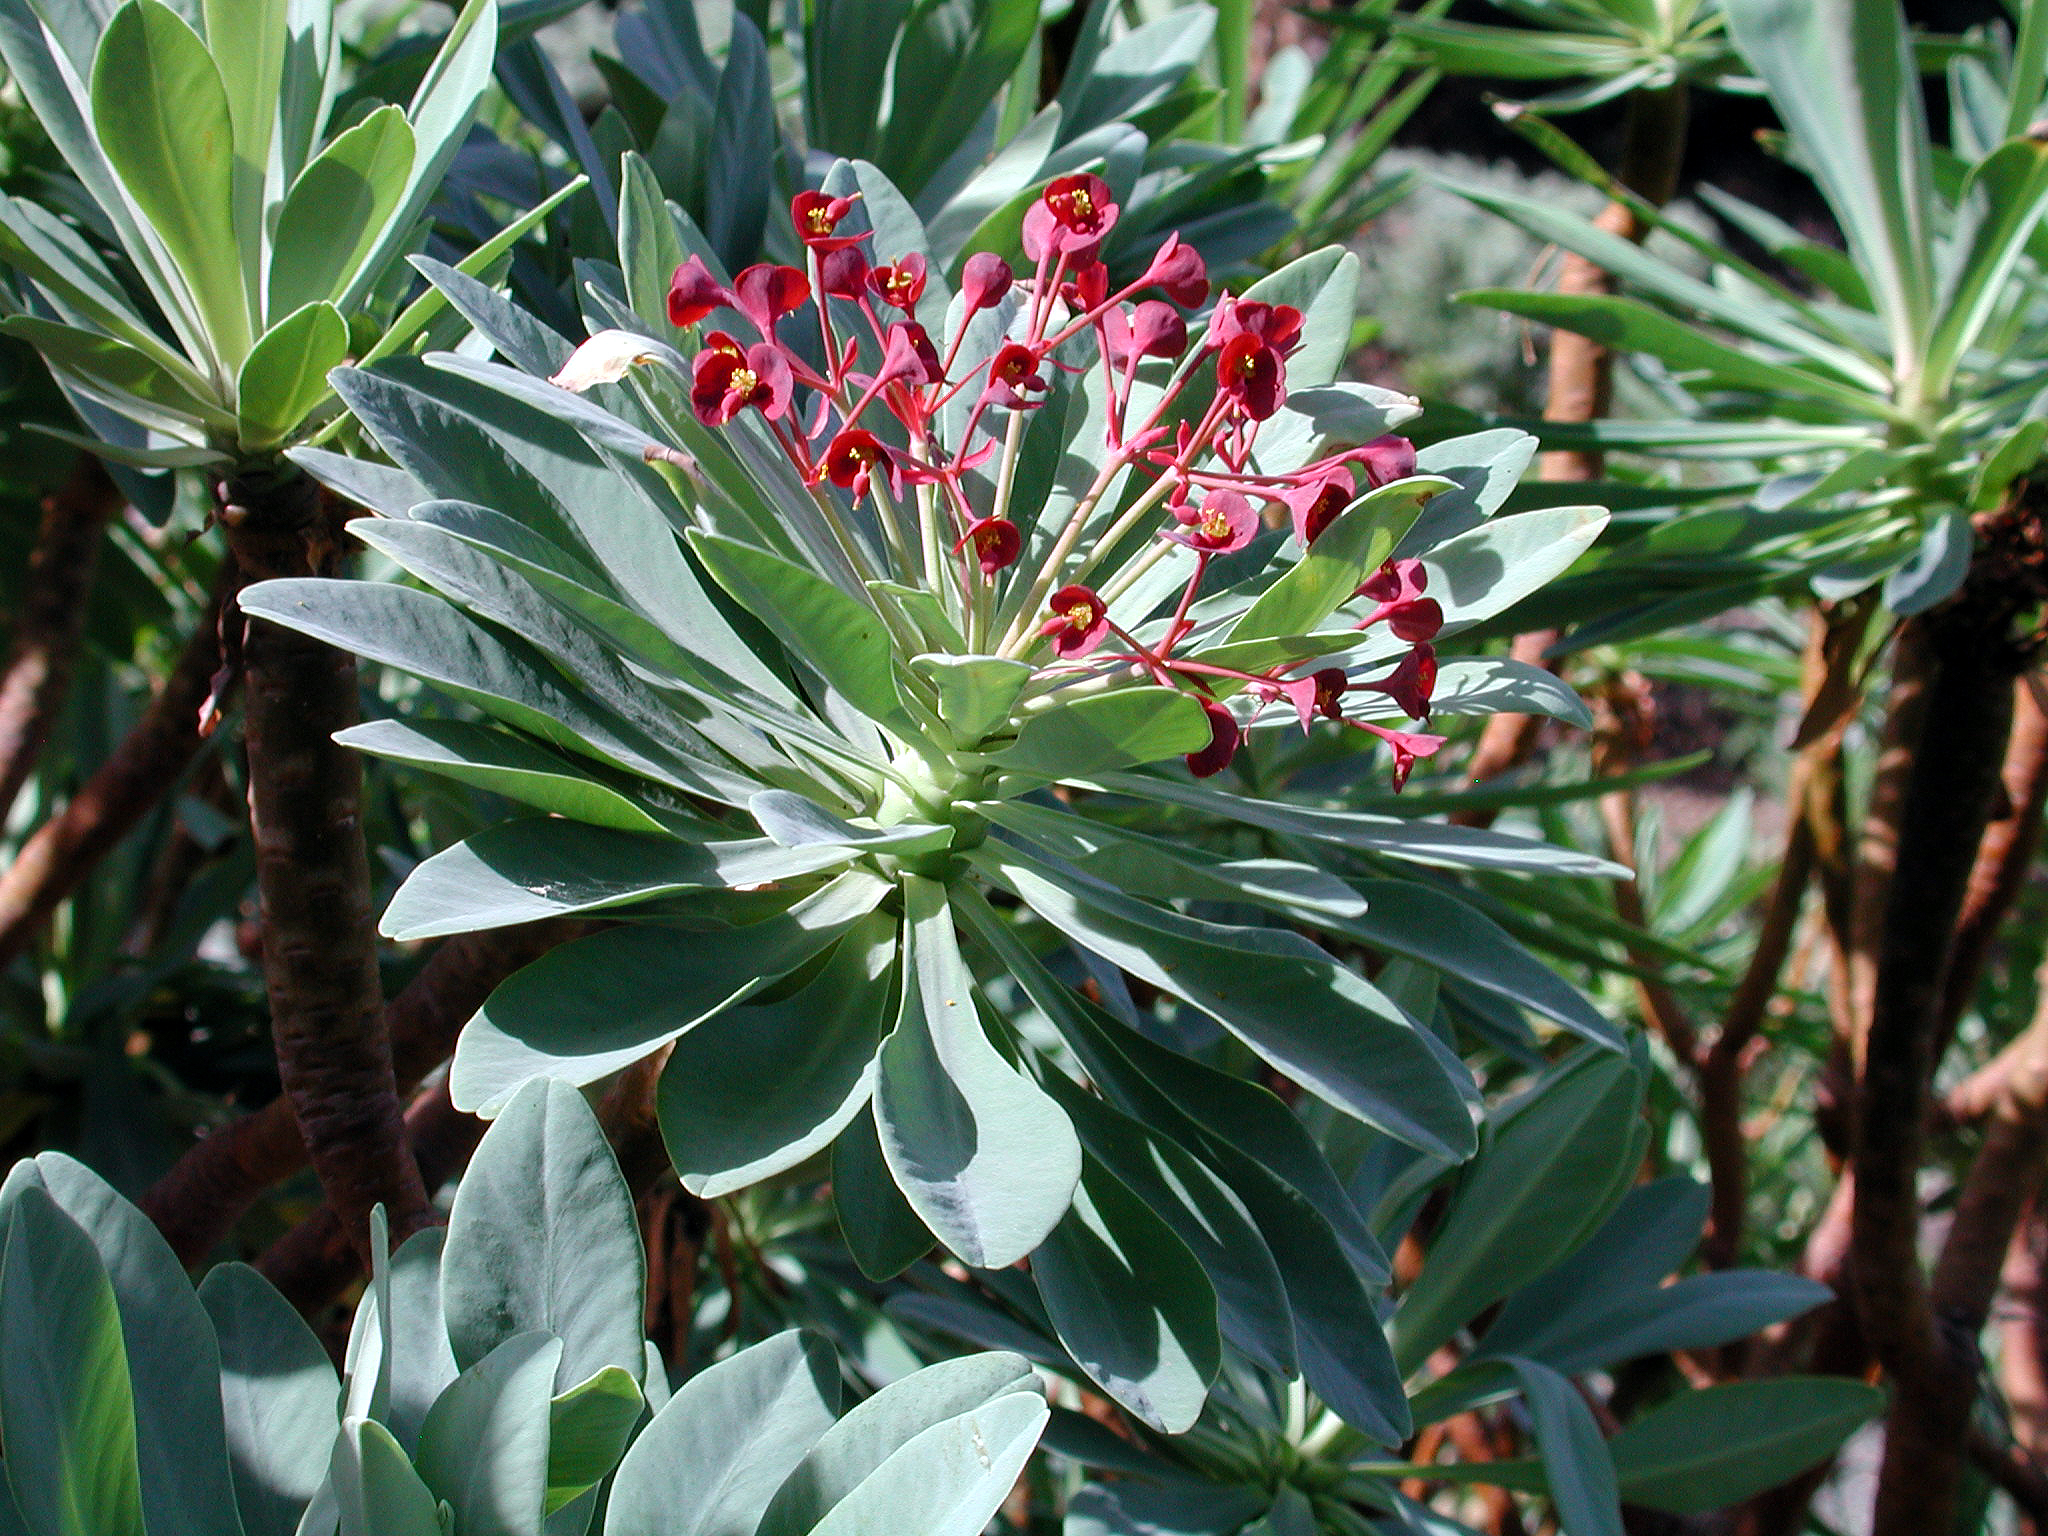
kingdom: Plantae
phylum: Tracheophyta
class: Magnoliopsida
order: Malpighiales
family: Euphorbiaceae
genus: Euphorbia
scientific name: Euphorbia atropurpurea
